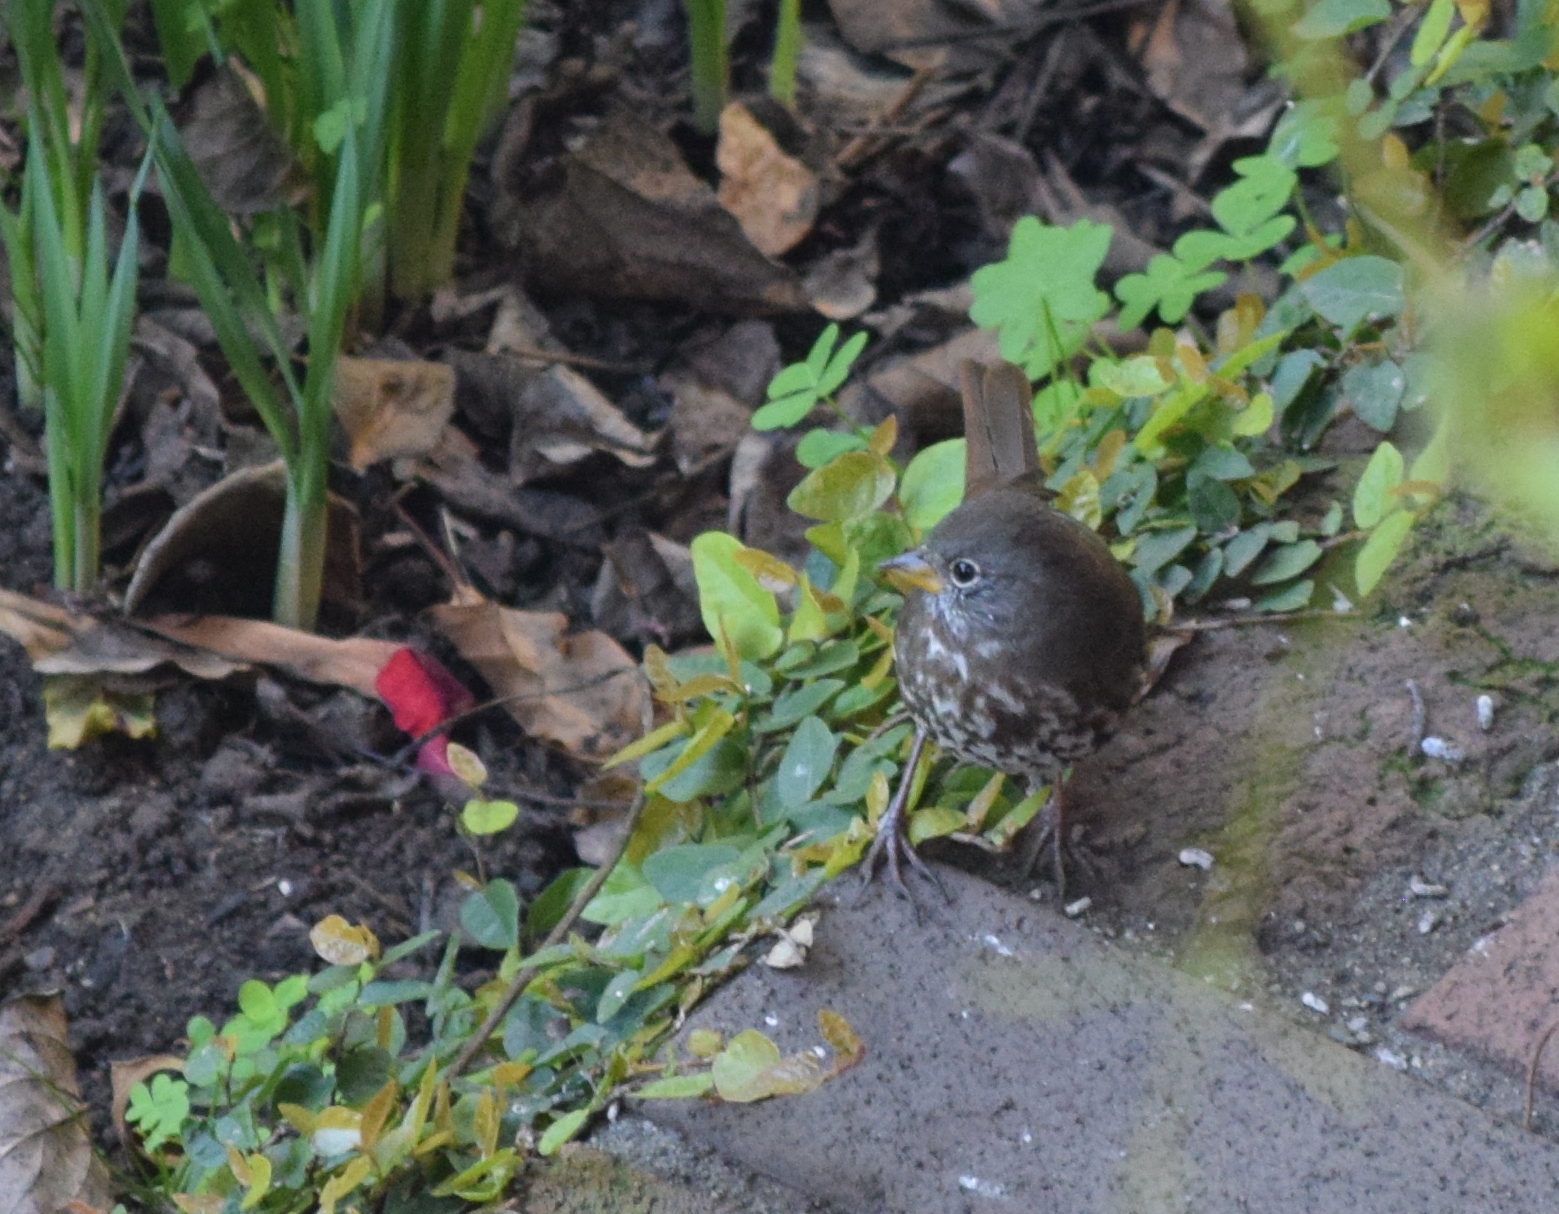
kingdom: Animalia
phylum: Chordata
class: Aves
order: Passeriformes
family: Passerellidae
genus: Passerella
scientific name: Passerella iliaca
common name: Fox sparrow
